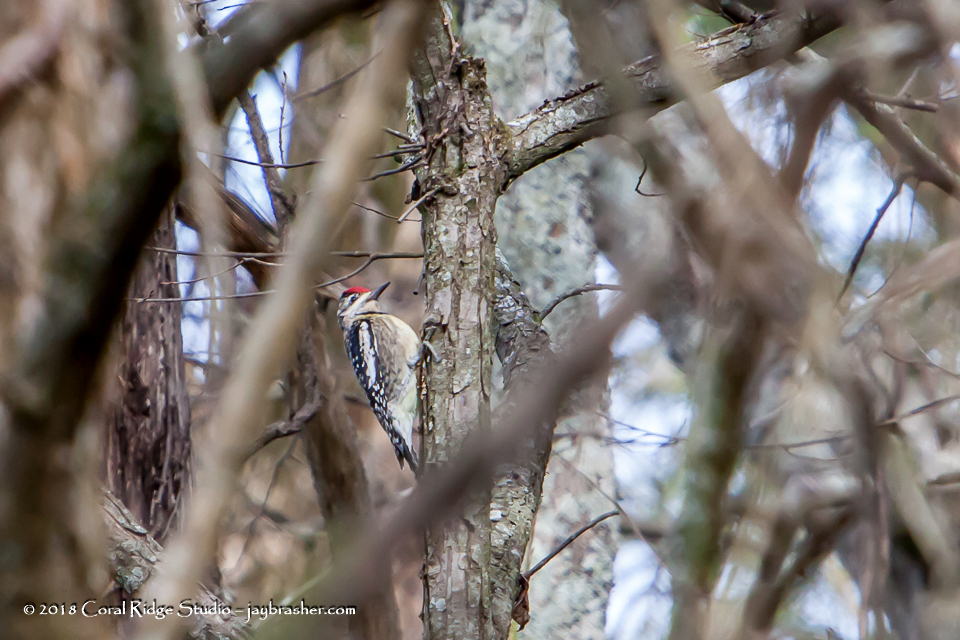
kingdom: Animalia
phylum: Chordata
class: Aves
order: Piciformes
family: Picidae
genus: Sphyrapicus
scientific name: Sphyrapicus varius
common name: Yellow-bellied sapsucker
